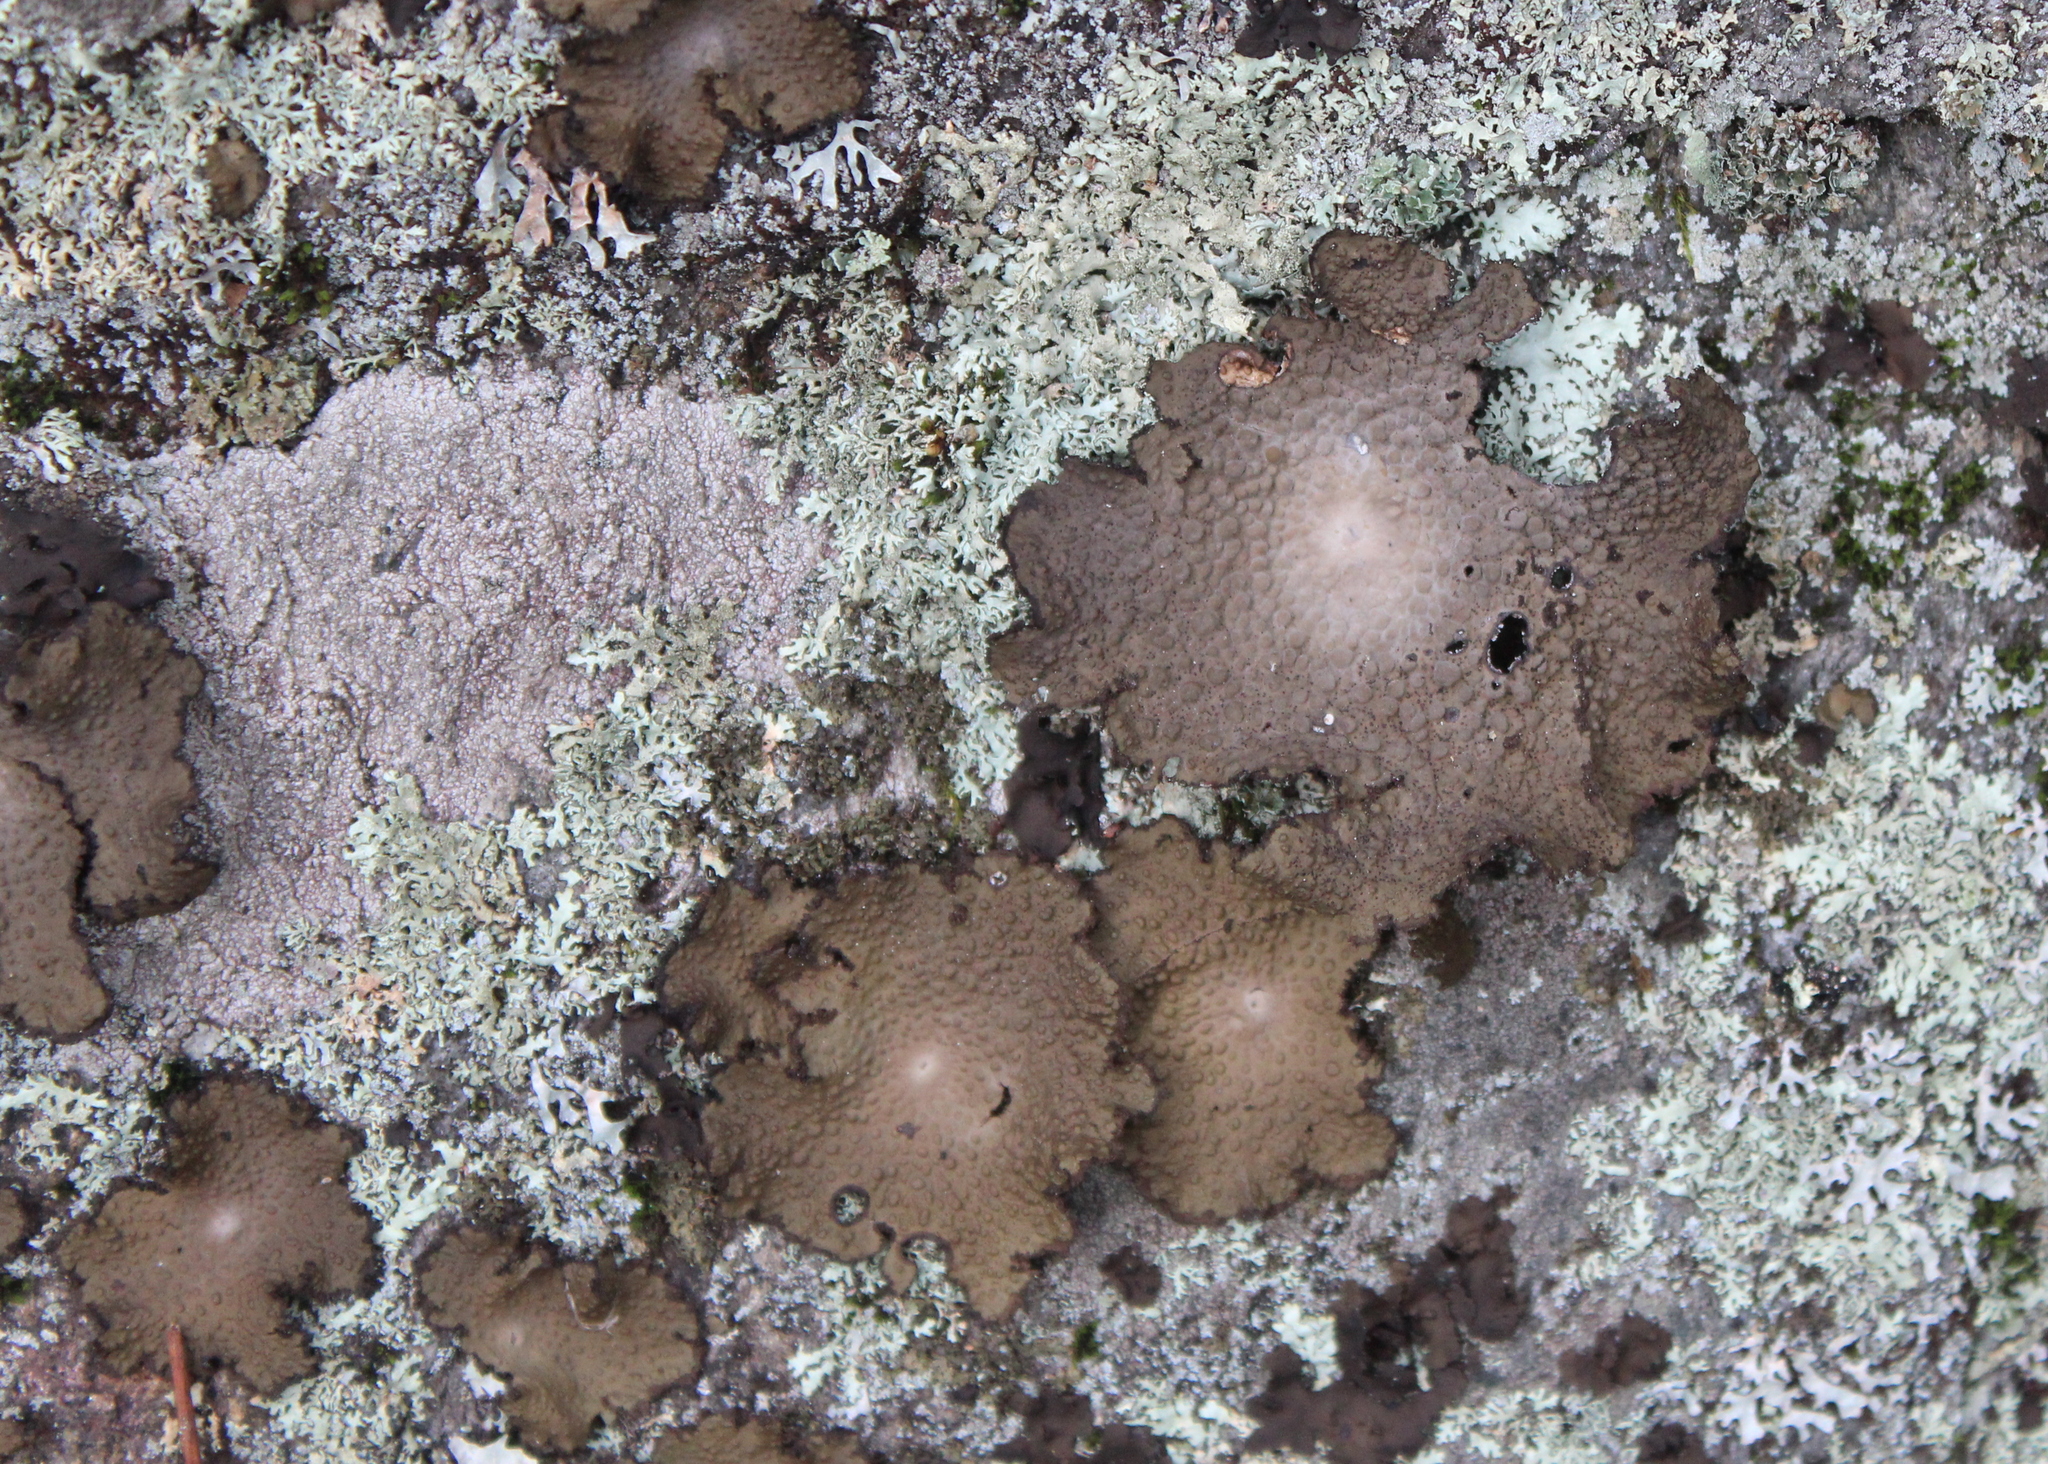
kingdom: Fungi
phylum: Ascomycota
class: Lecanoromycetes
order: Umbilicariales
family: Umbilicariaceae
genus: Lasallia
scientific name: Lasallia papulosa
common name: Common toadskin lichen
